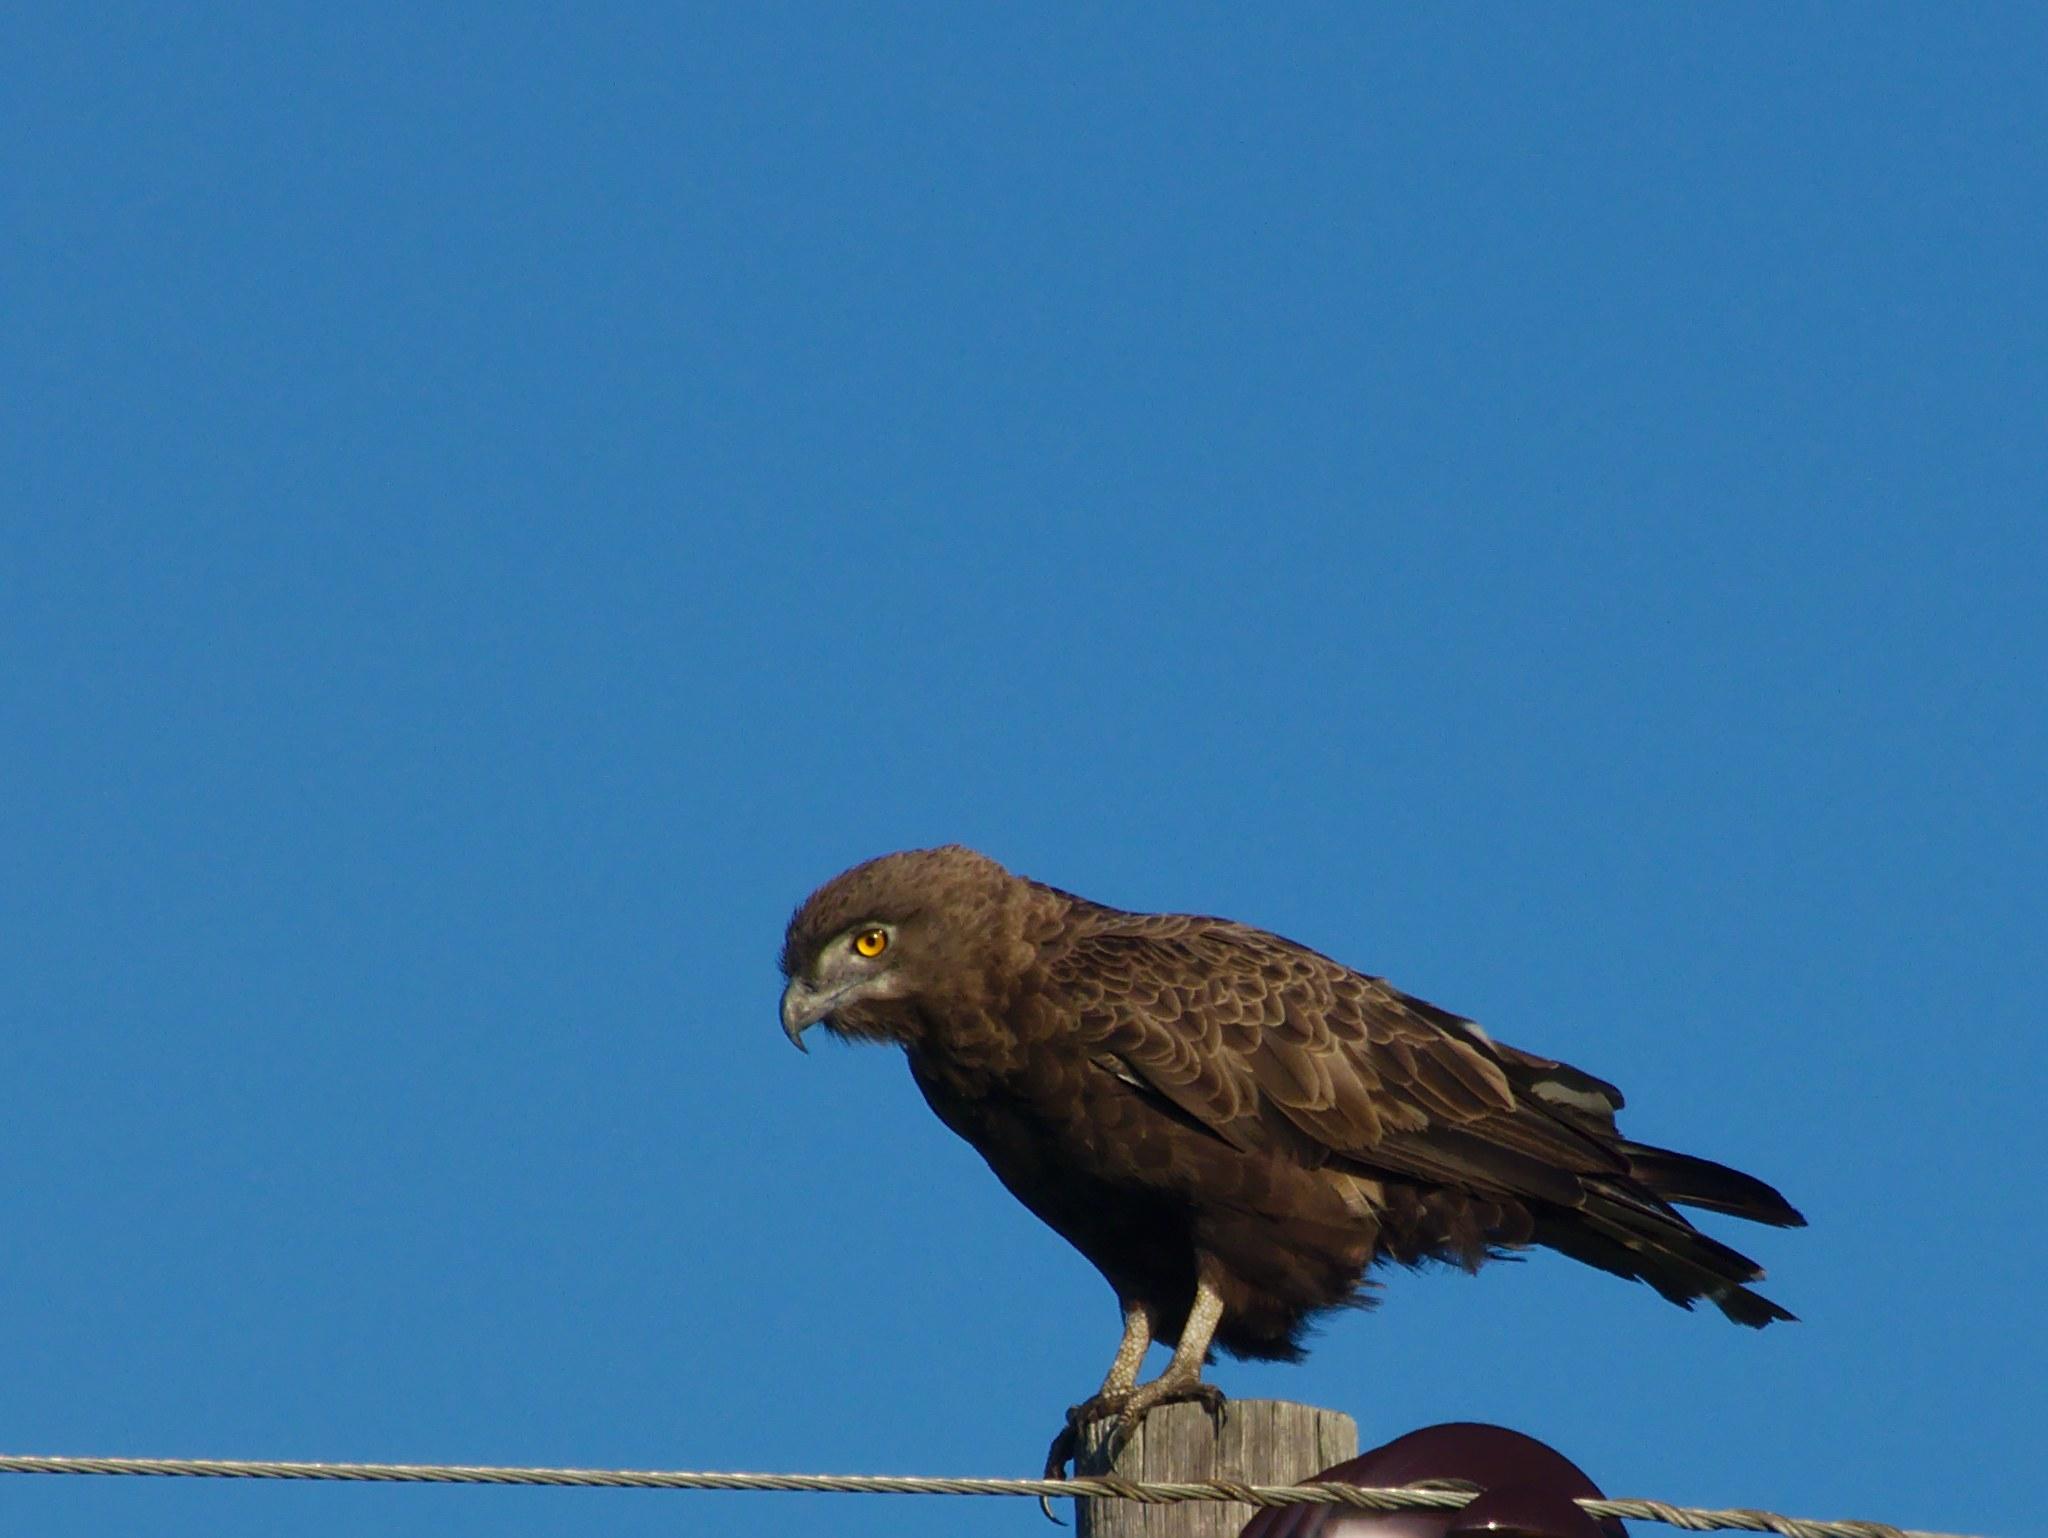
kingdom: Animalia
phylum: Chordata
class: Aves
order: Accipitriformes
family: Accipitridae
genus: Circaetus
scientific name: Circaetus cinereus
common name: Brown snake eagle
